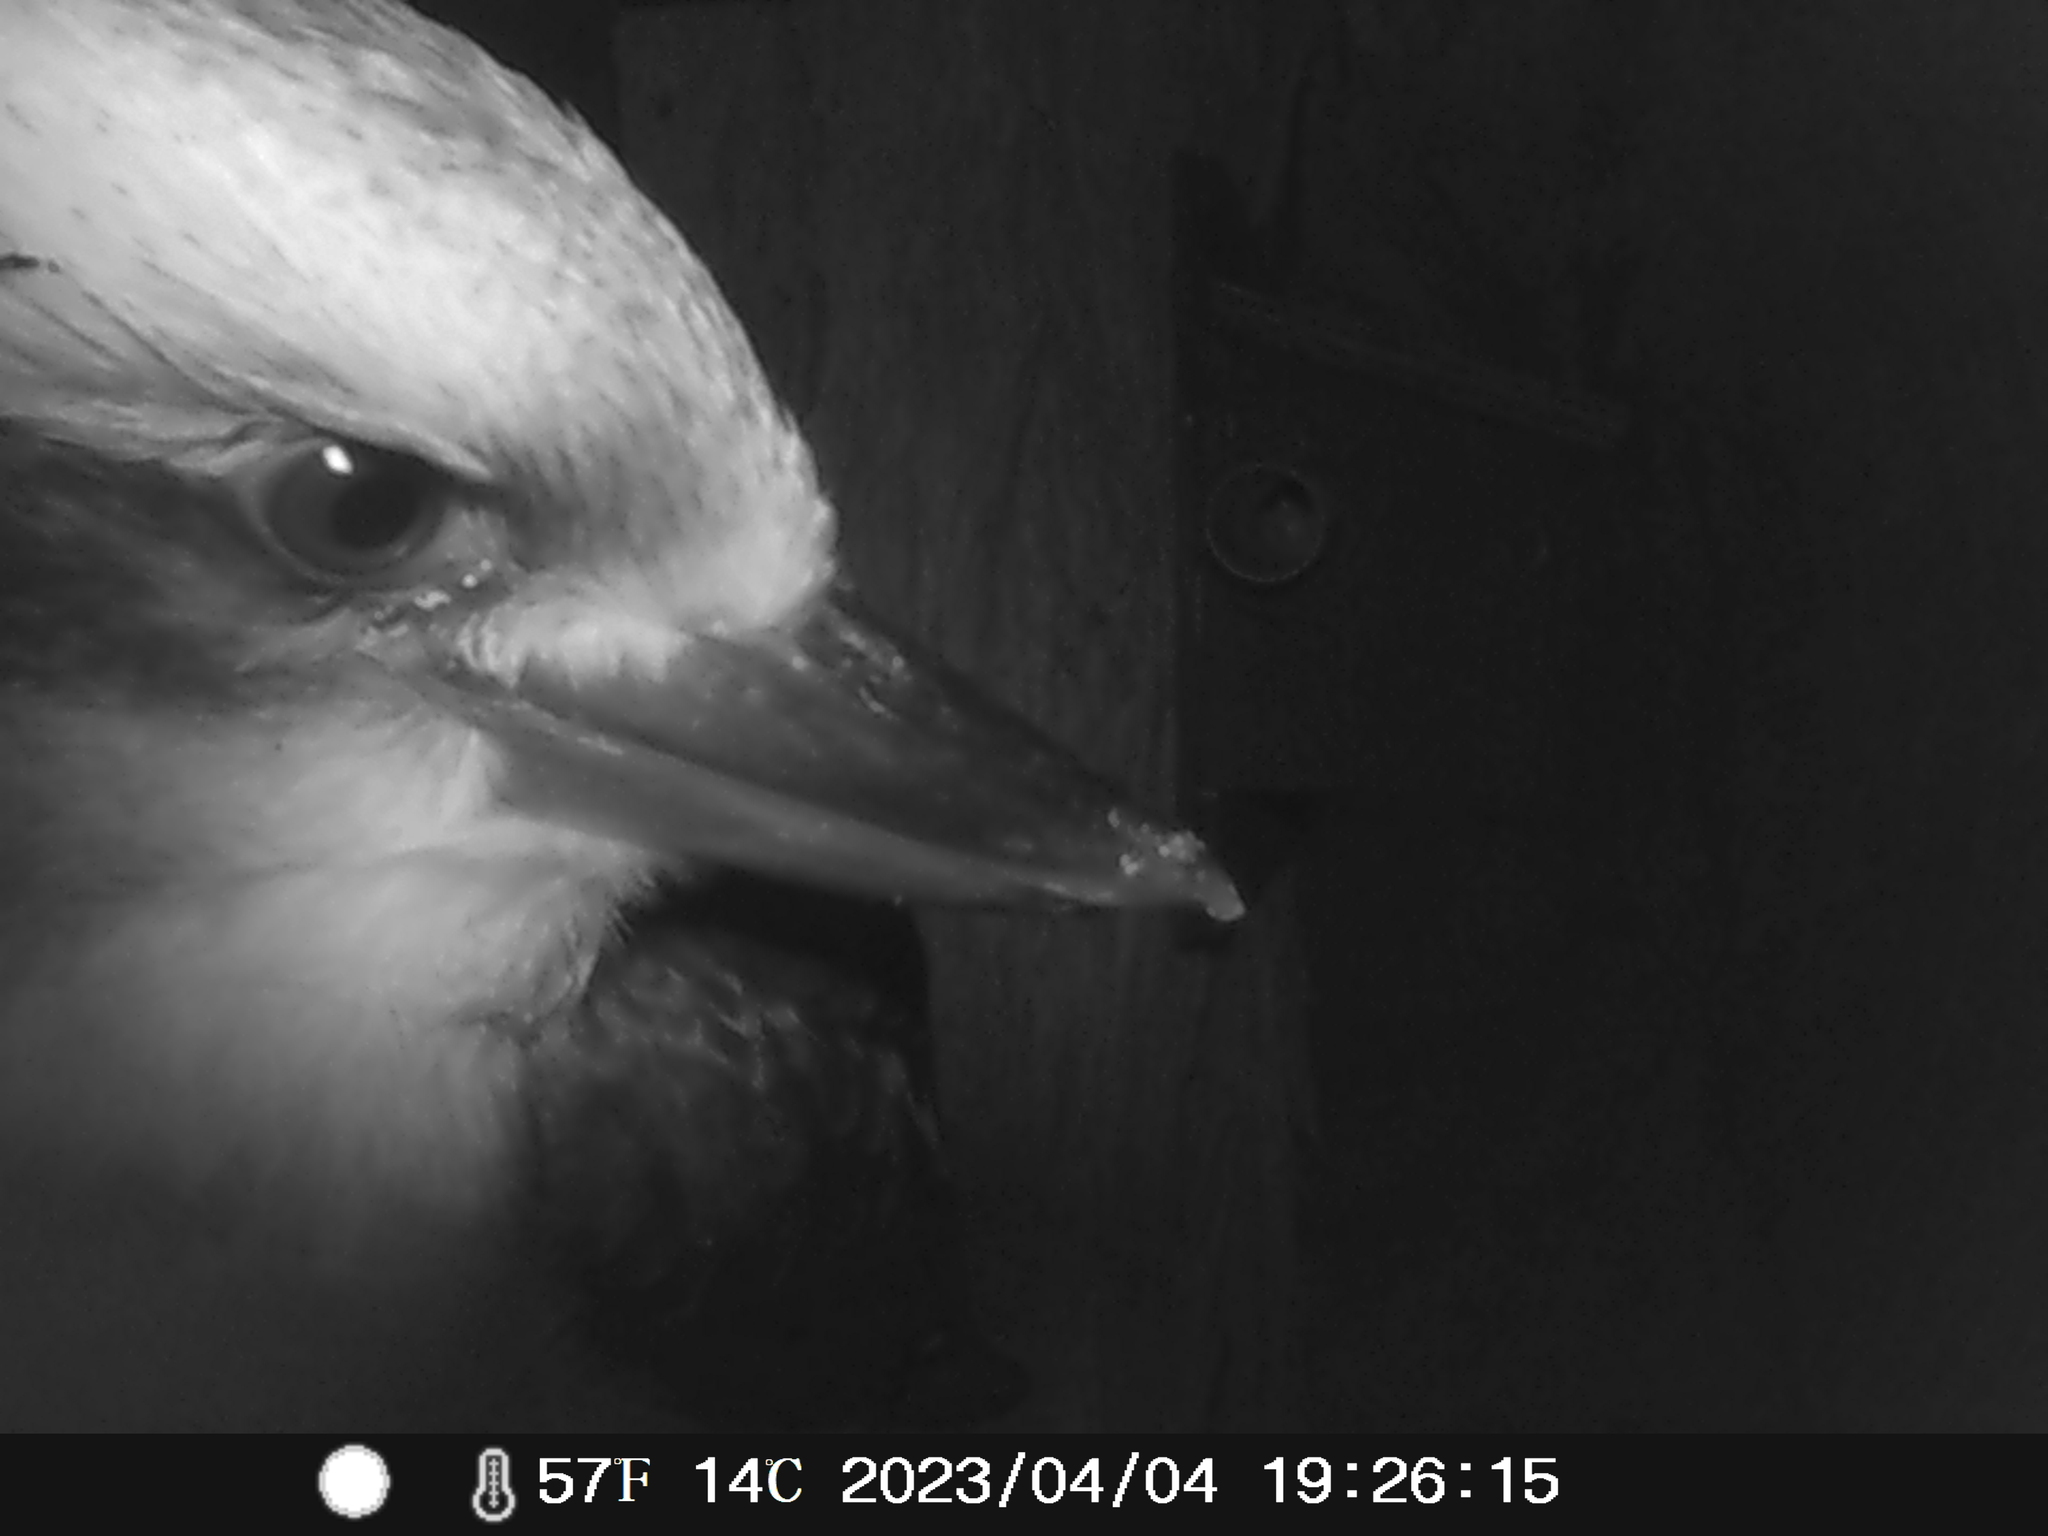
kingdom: Animalia
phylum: Chordata
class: Aves
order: Coraciiformes
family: Alcedinidae
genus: Dacelo
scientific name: Dacelo novaeguineae
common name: Laughing kookaburra
